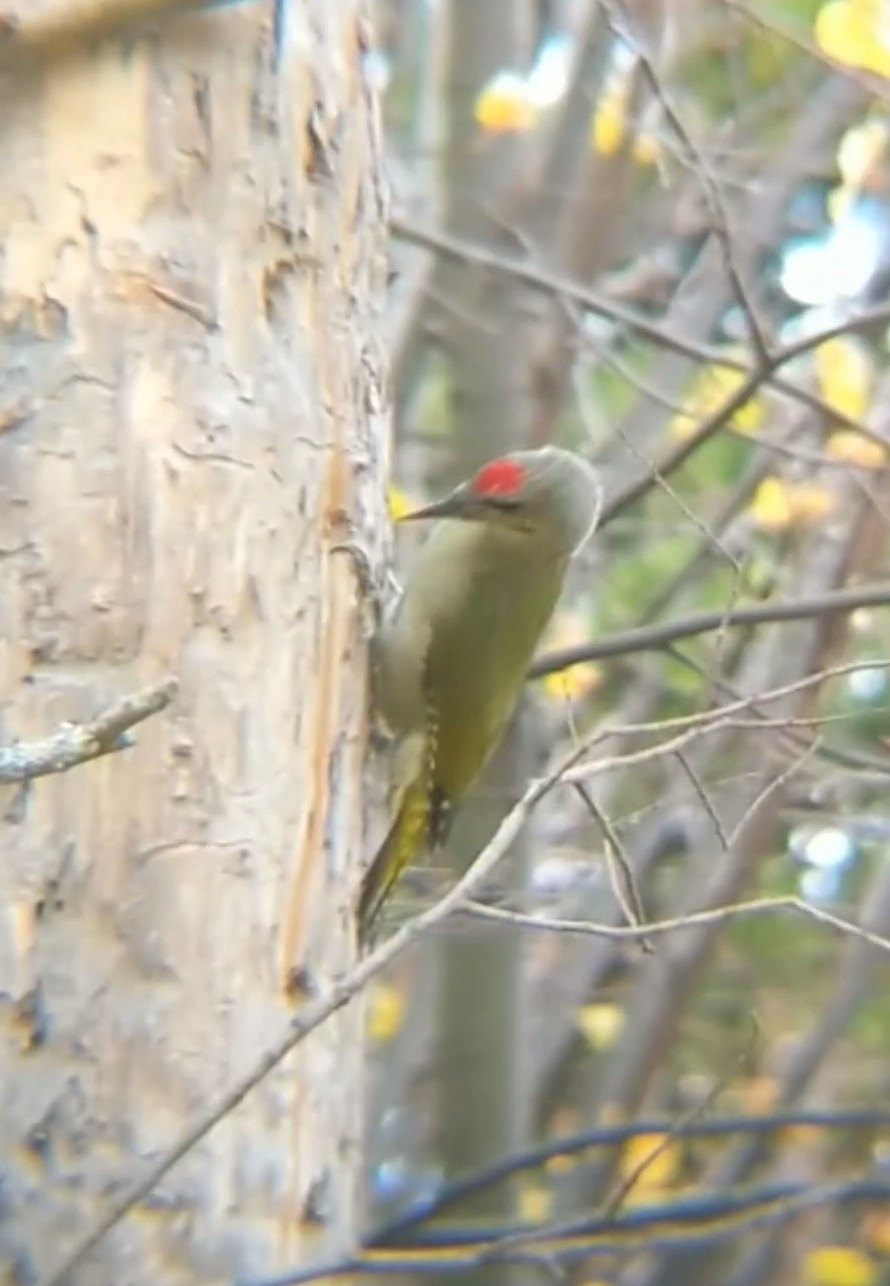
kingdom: Animalia
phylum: Chordata
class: Aves
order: Piciformes
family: Picidae
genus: Picus
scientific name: Picus canus
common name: Grey-headed woodpecker
